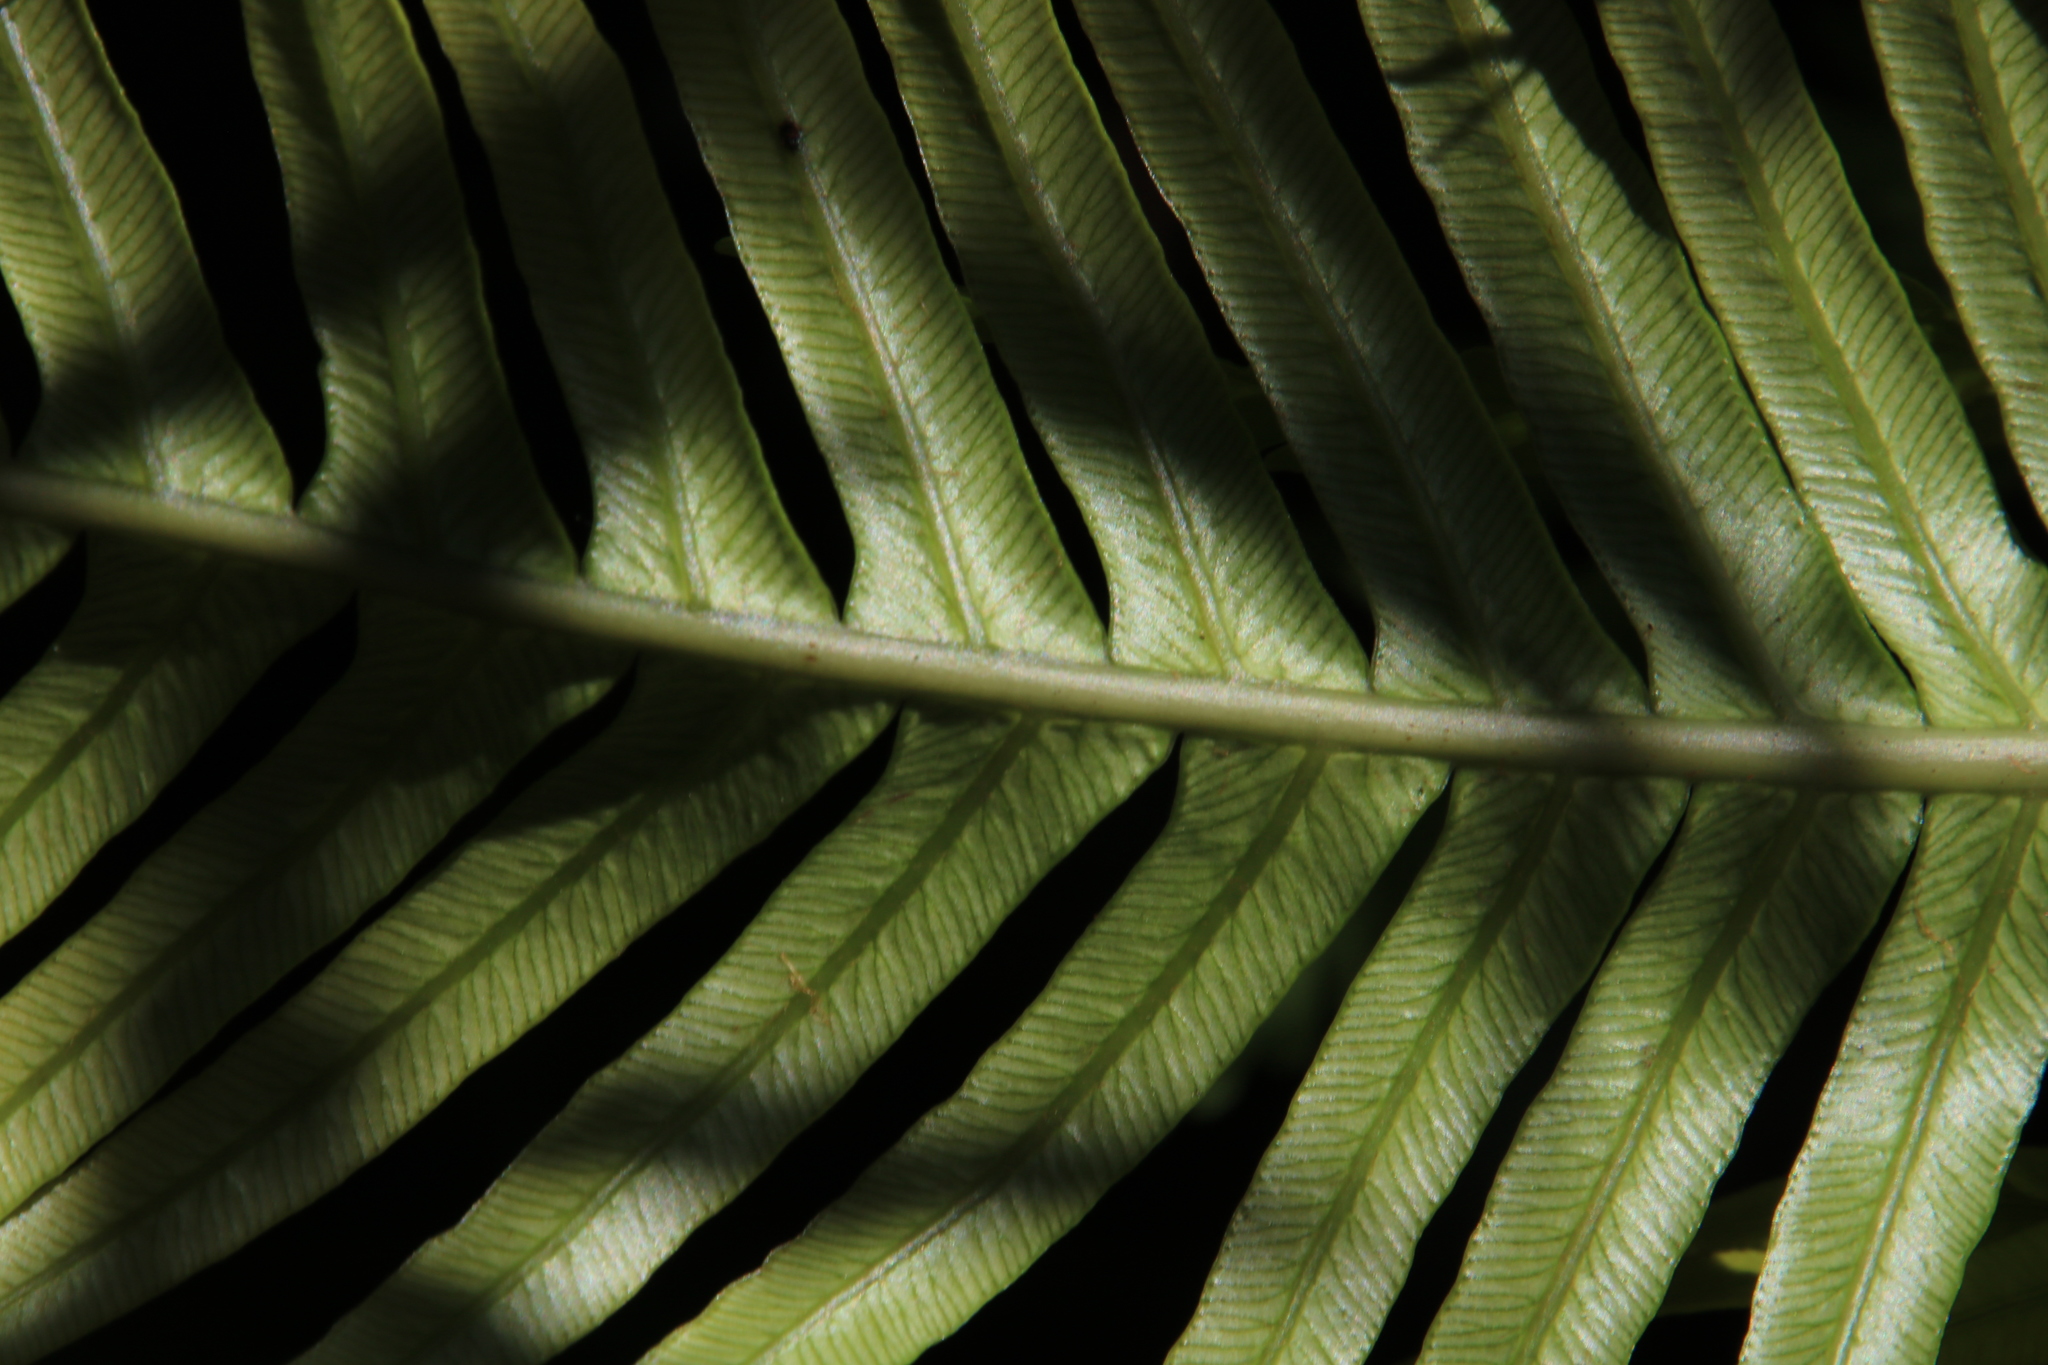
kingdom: Plantae
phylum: Tracheophyta
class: Polypodiopsida
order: Polypodiales
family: Blechnaceae
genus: Lomaridium
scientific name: Lomaridium attenuatum
